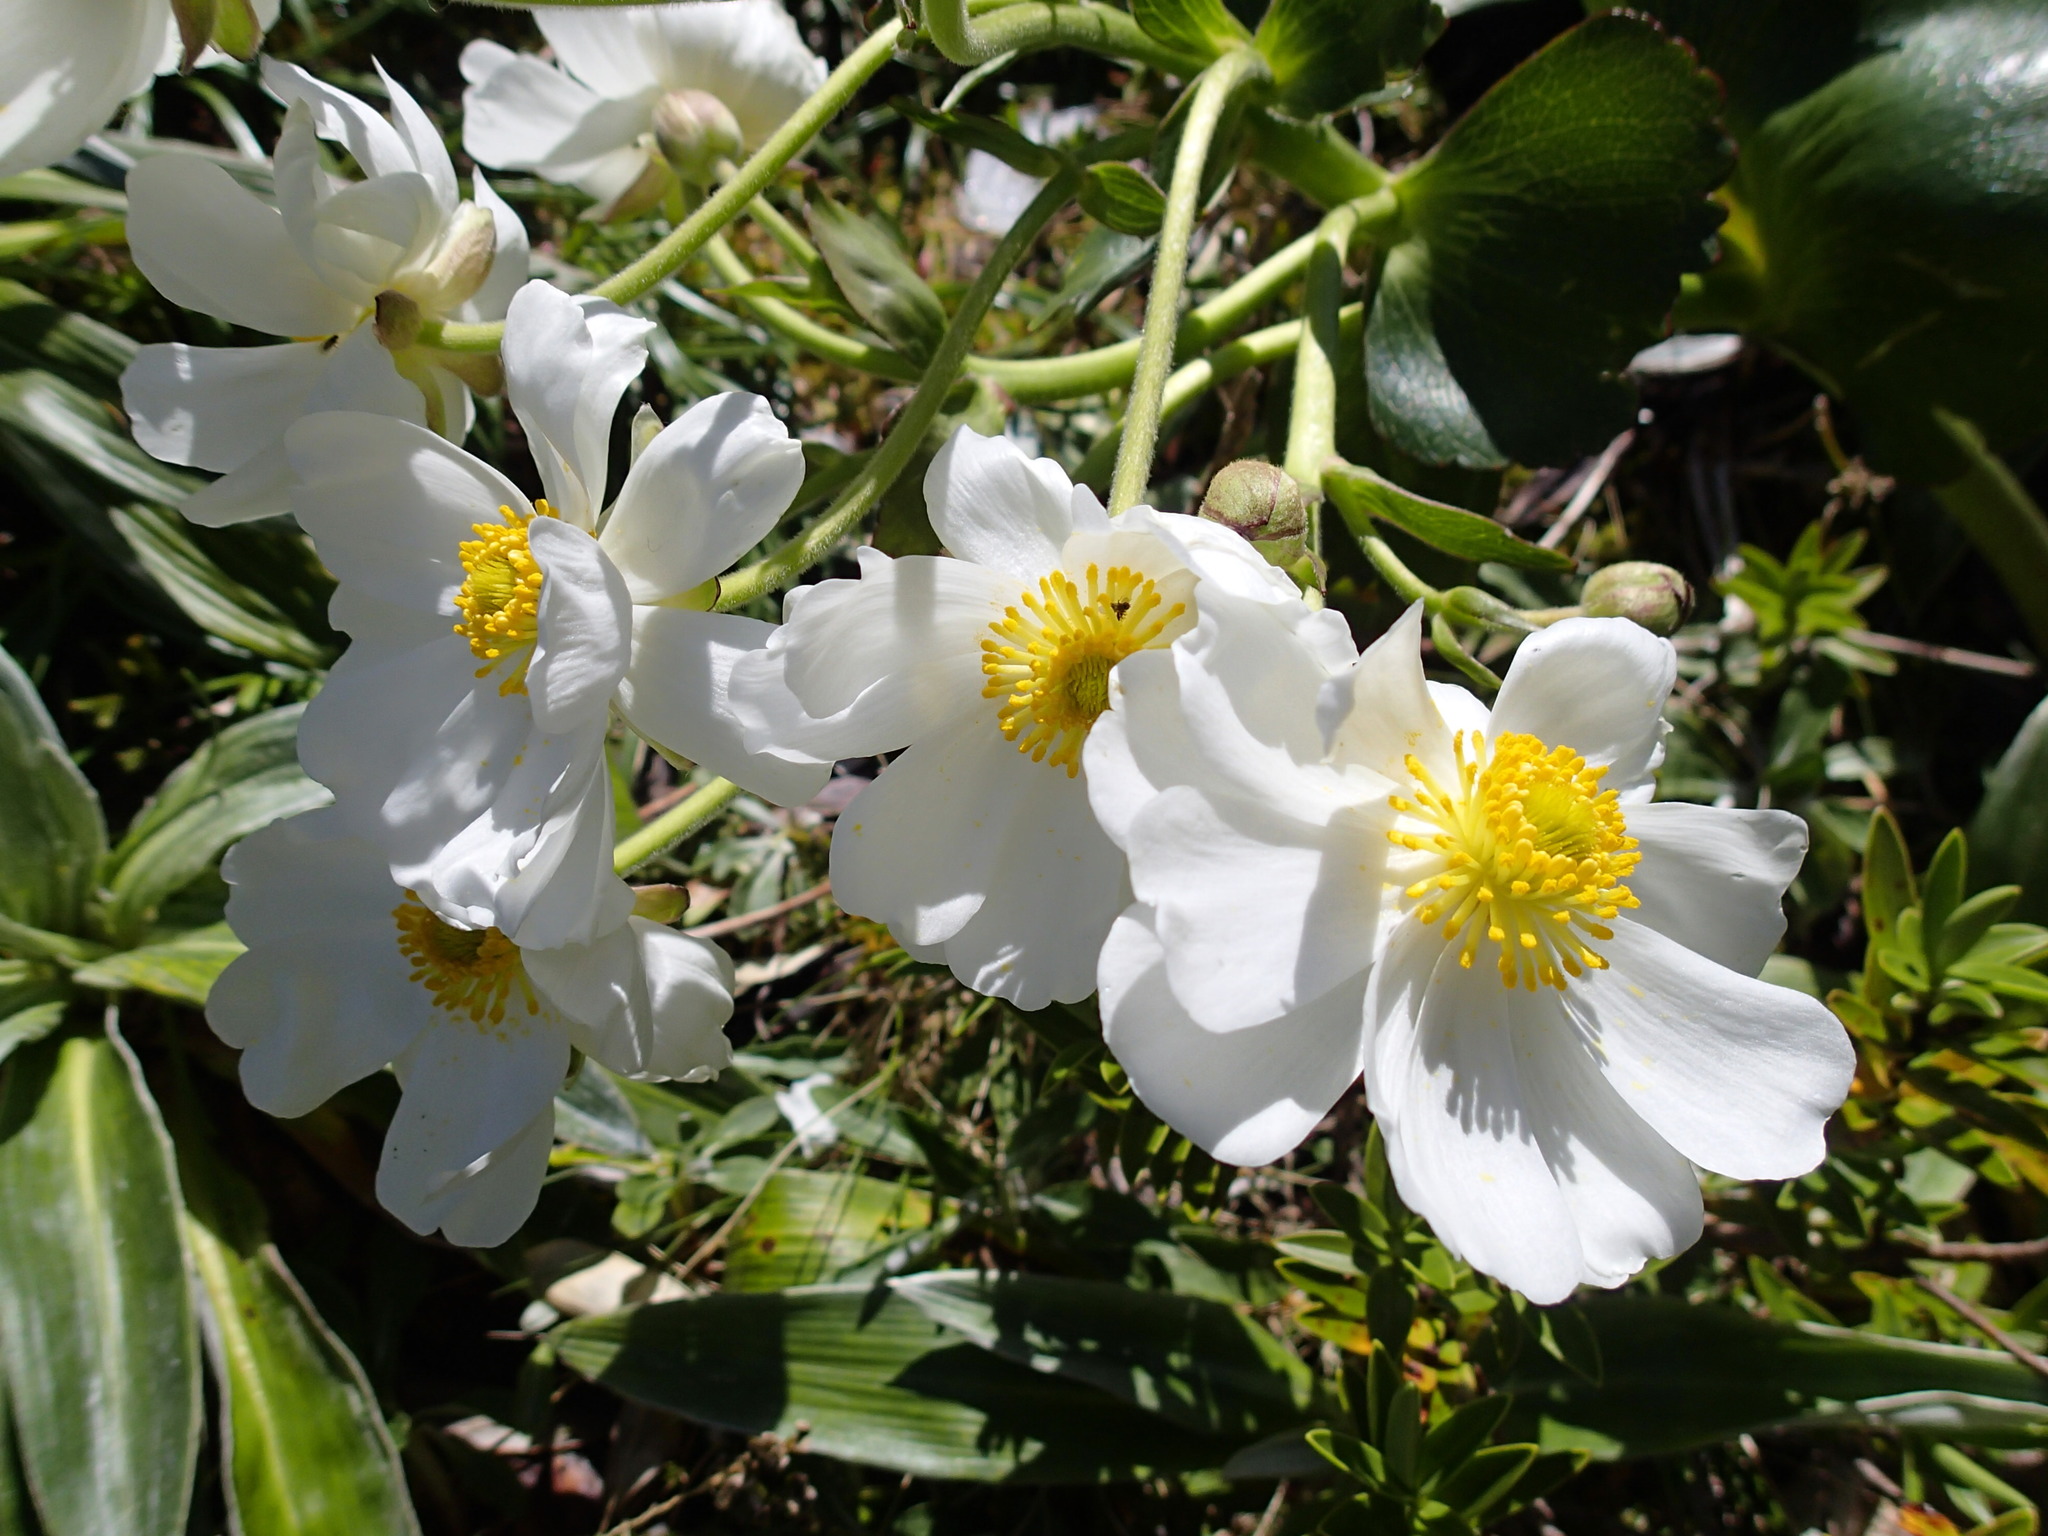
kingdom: Plantae
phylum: Tracheophyta
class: Magnoliopsida
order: Ranunculales
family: Ranunculaceae
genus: Ranunculus
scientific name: Ranunculus lyallii
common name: Mountain-lily
